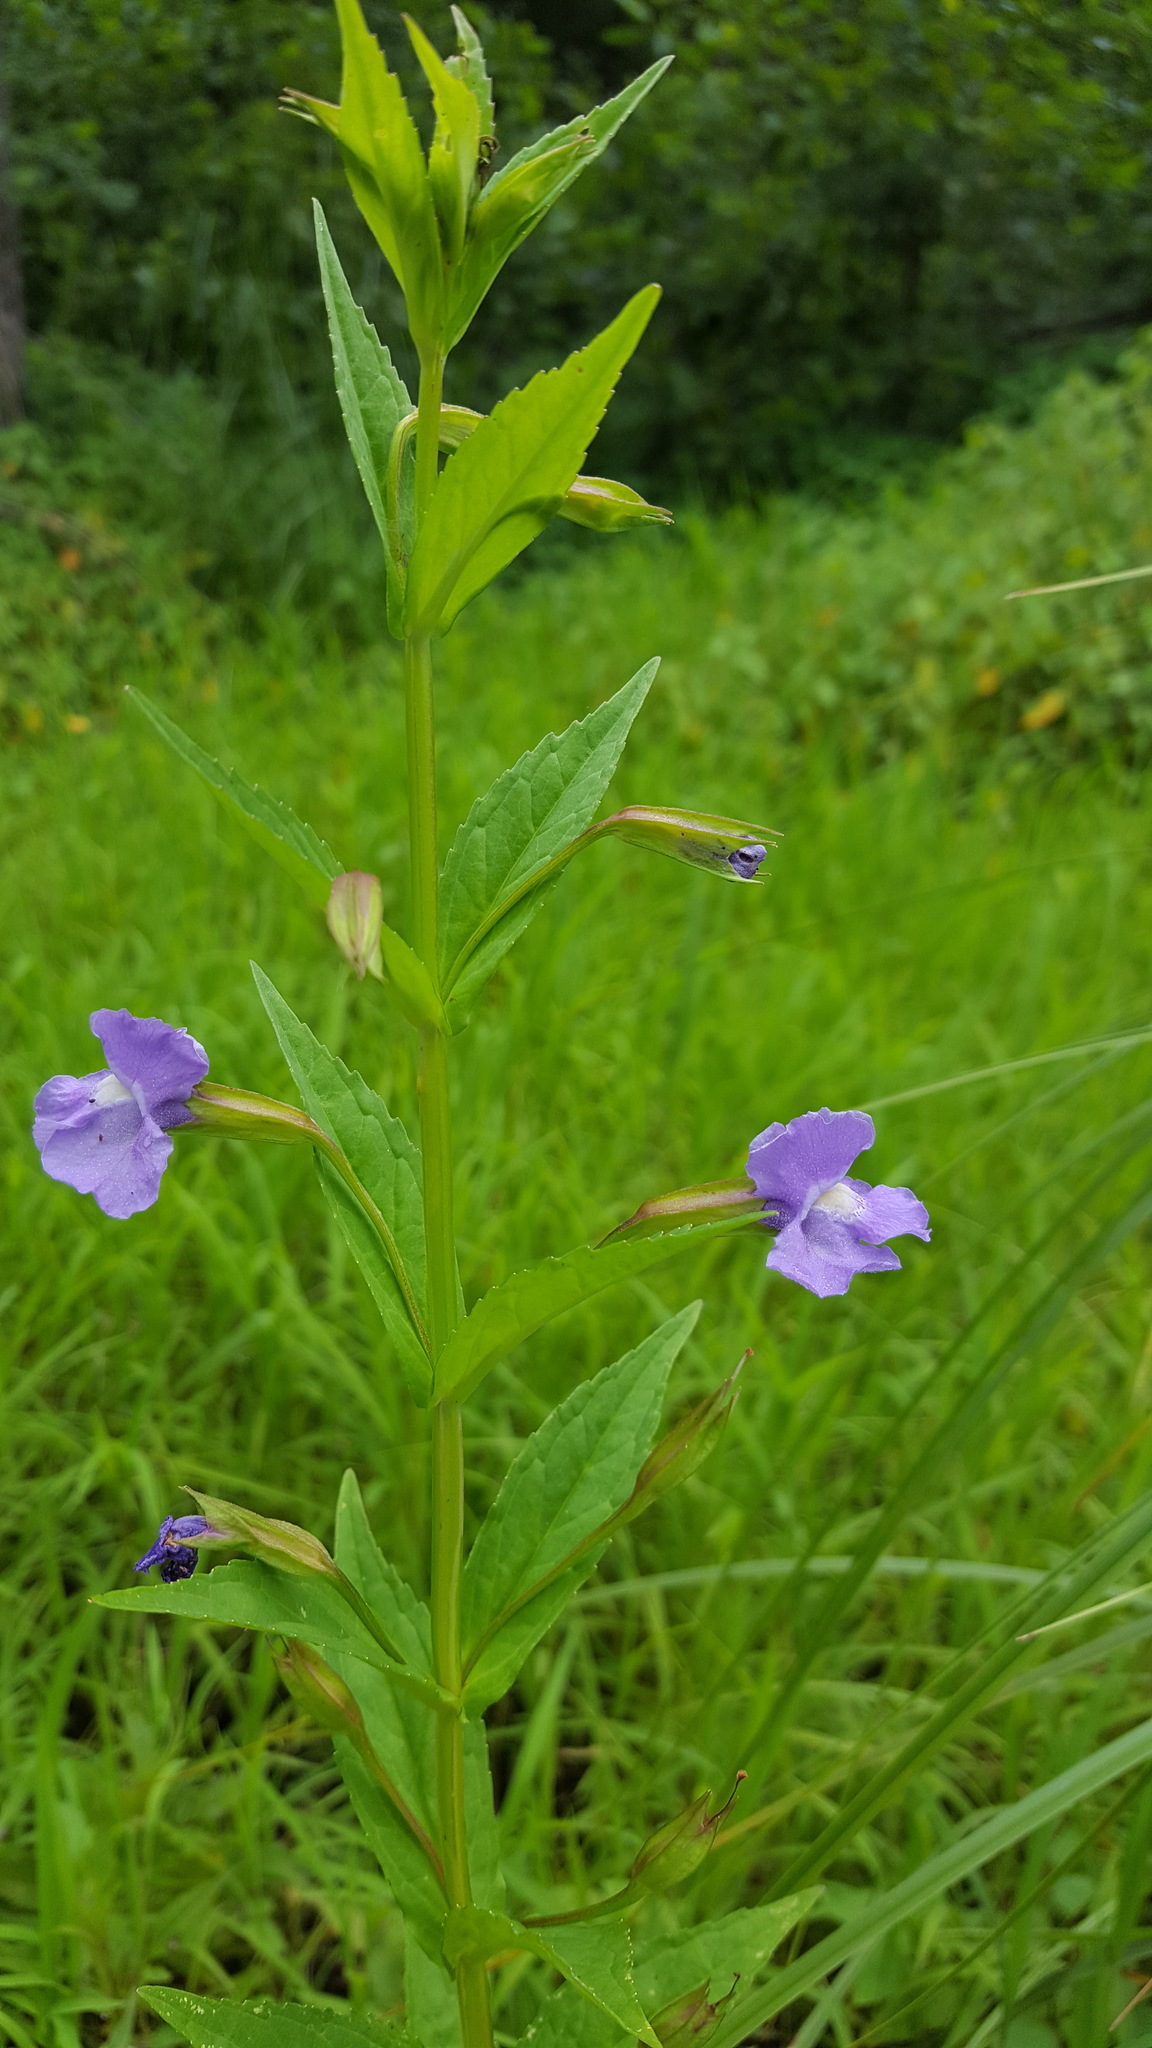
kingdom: Plantae
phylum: Tracheophyta
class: Magnoliopsida
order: Lamiales
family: Phrymaceae
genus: Mimulus
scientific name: Mimulus ringens
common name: Allegheny monkeyflower
